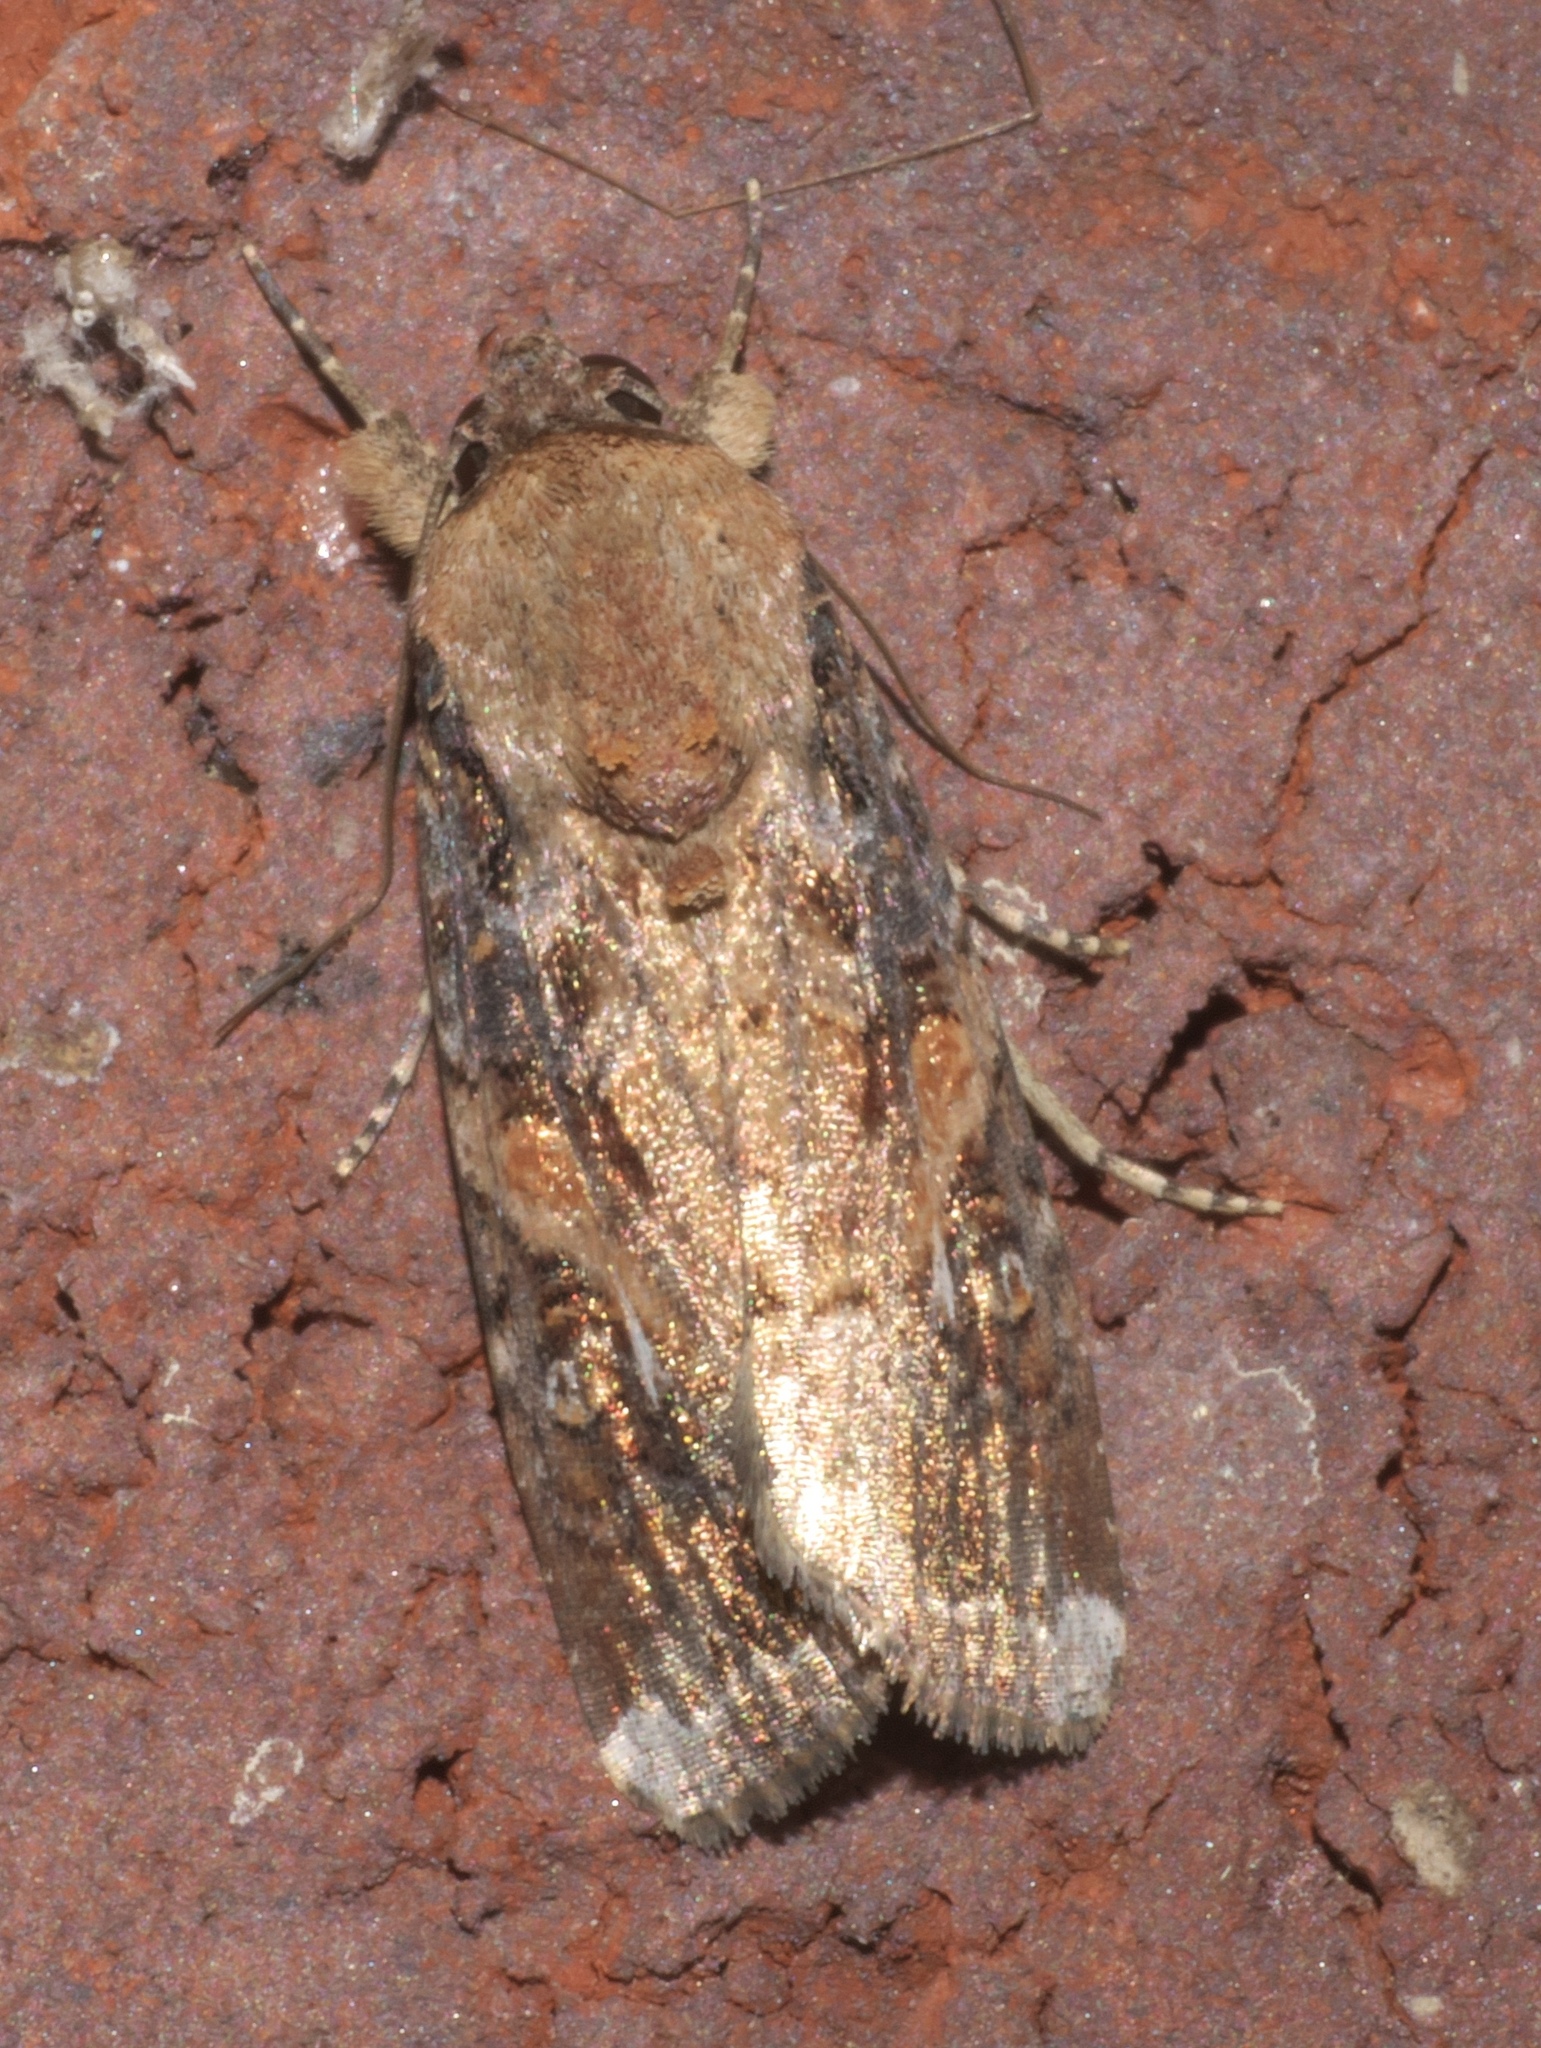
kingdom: Animalia
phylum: Arthropoda
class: Insecta
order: Lepidoptera
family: Noctuidae
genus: Spodoptera
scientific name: Spodoptera frugiperda
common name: Fall armyworm
